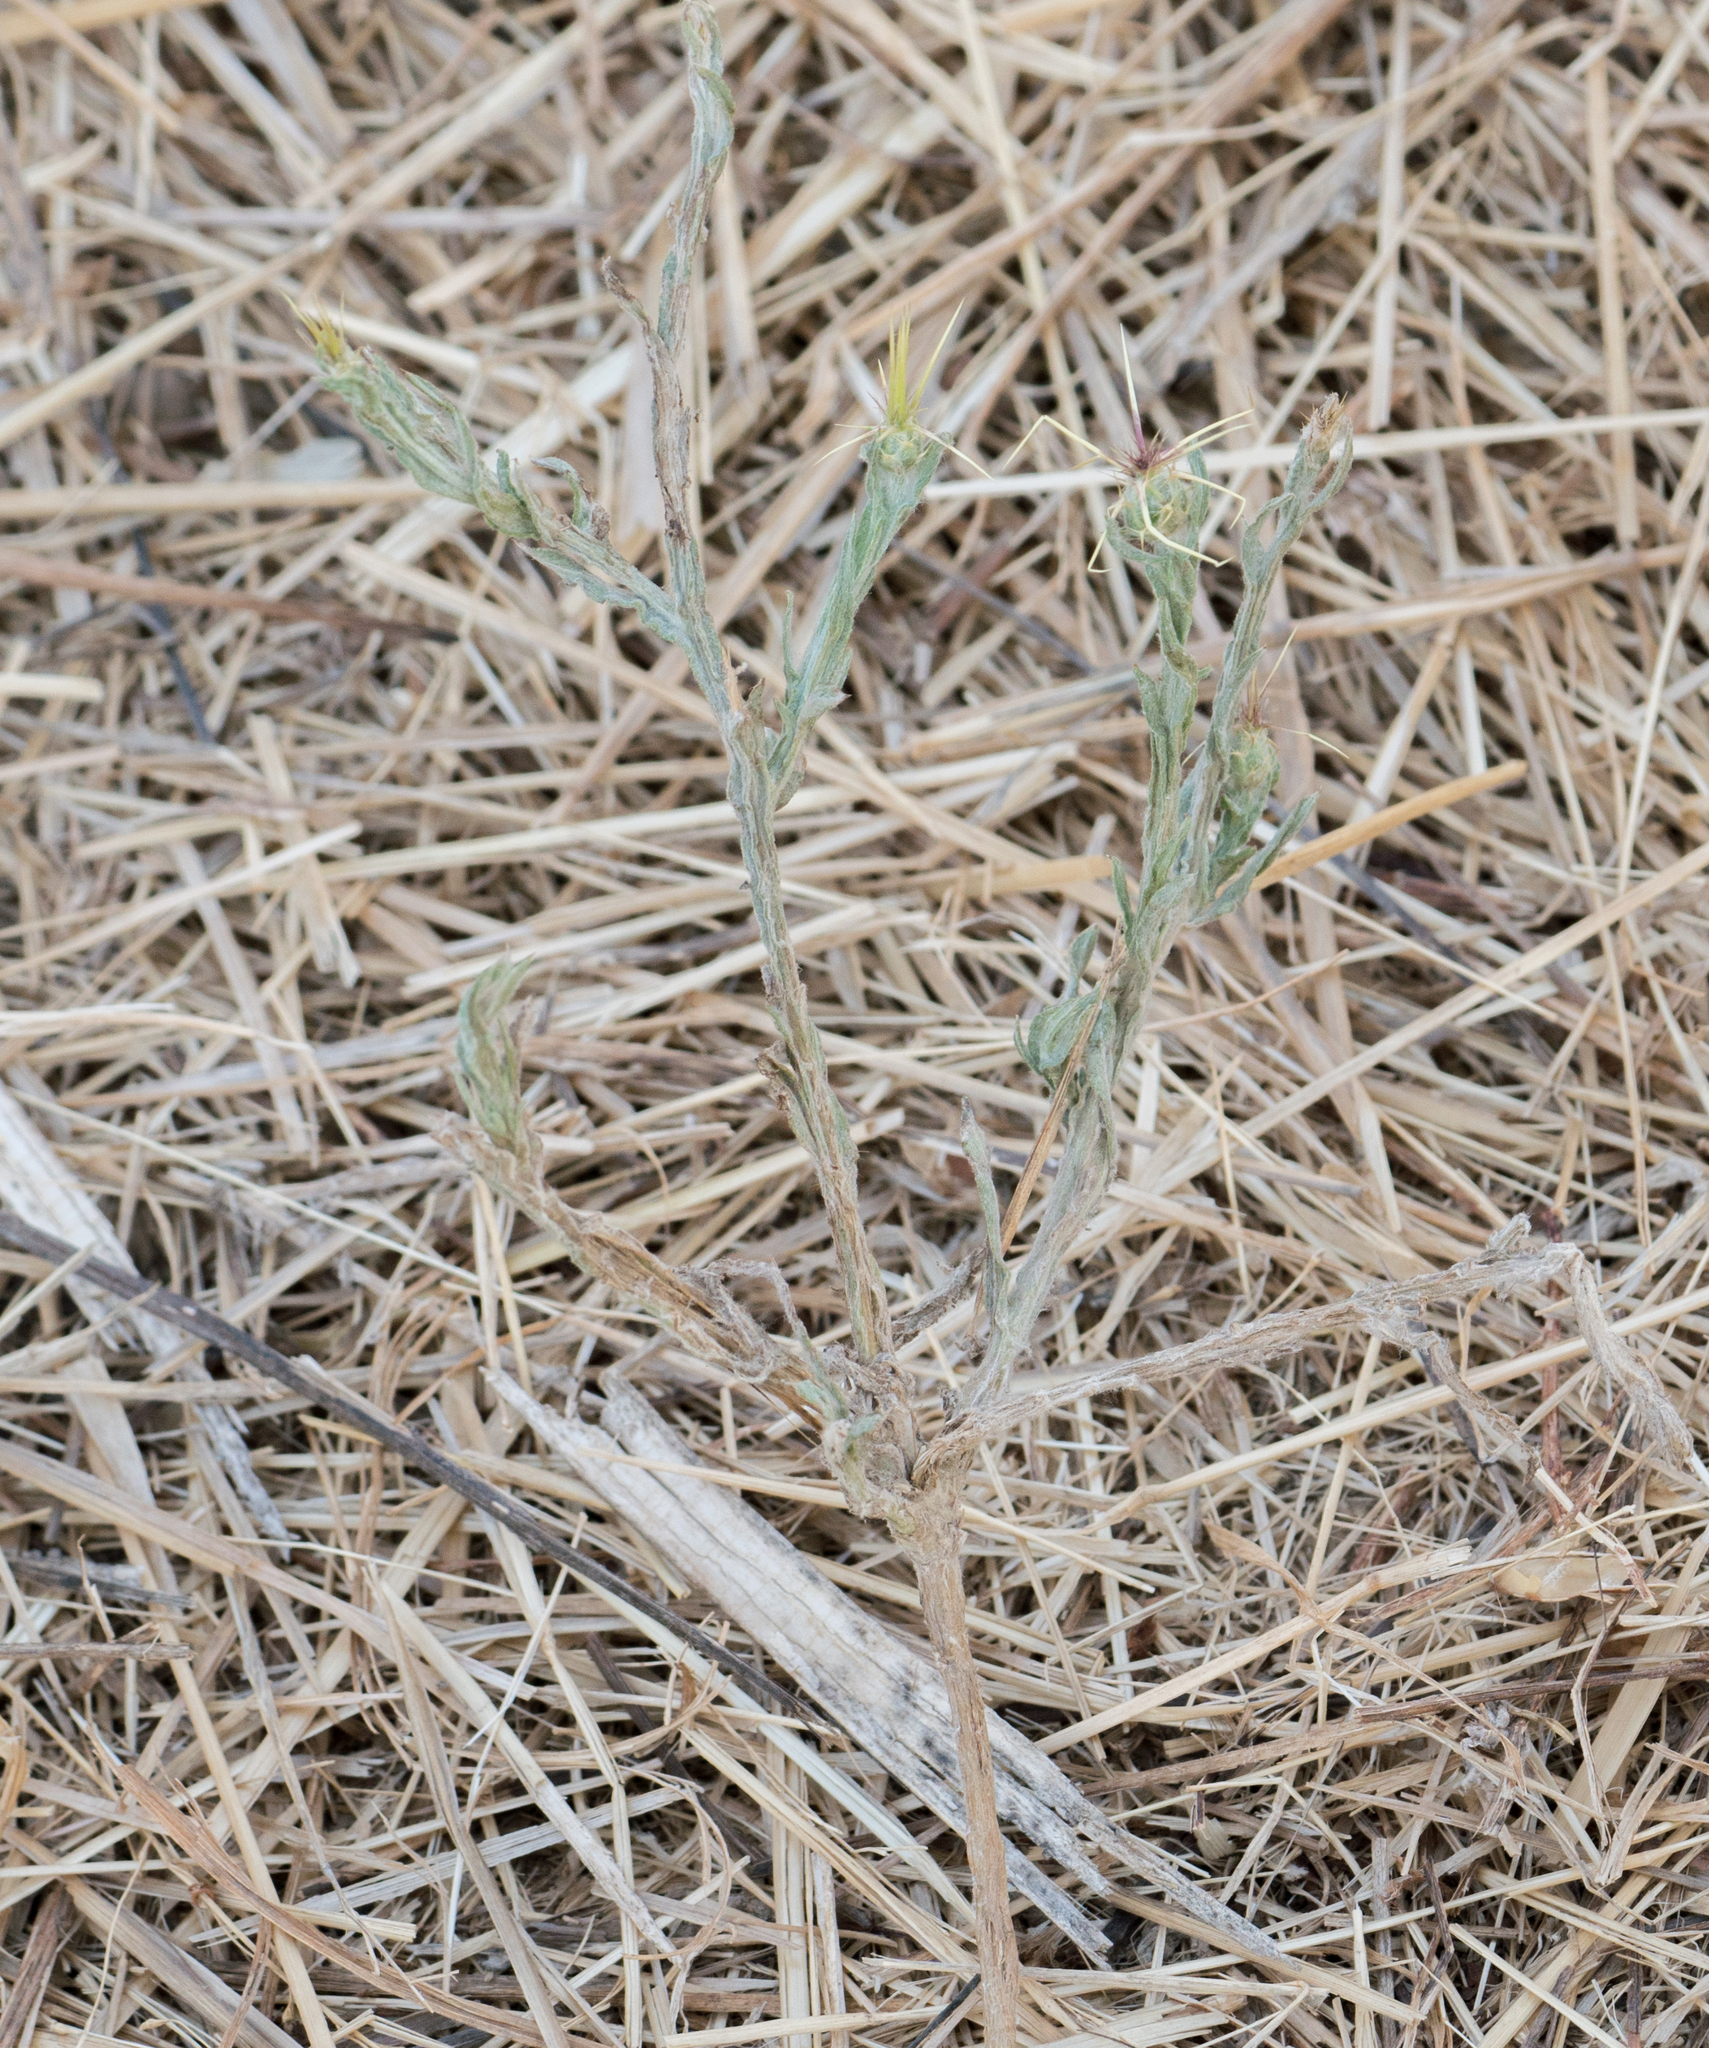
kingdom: Plantae
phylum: Tracheophyta
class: Magnoliopsida
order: Asterales
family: Asteraceae
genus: Centaurea
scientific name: Centaurea solstitialis
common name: Yellow star-thistle
